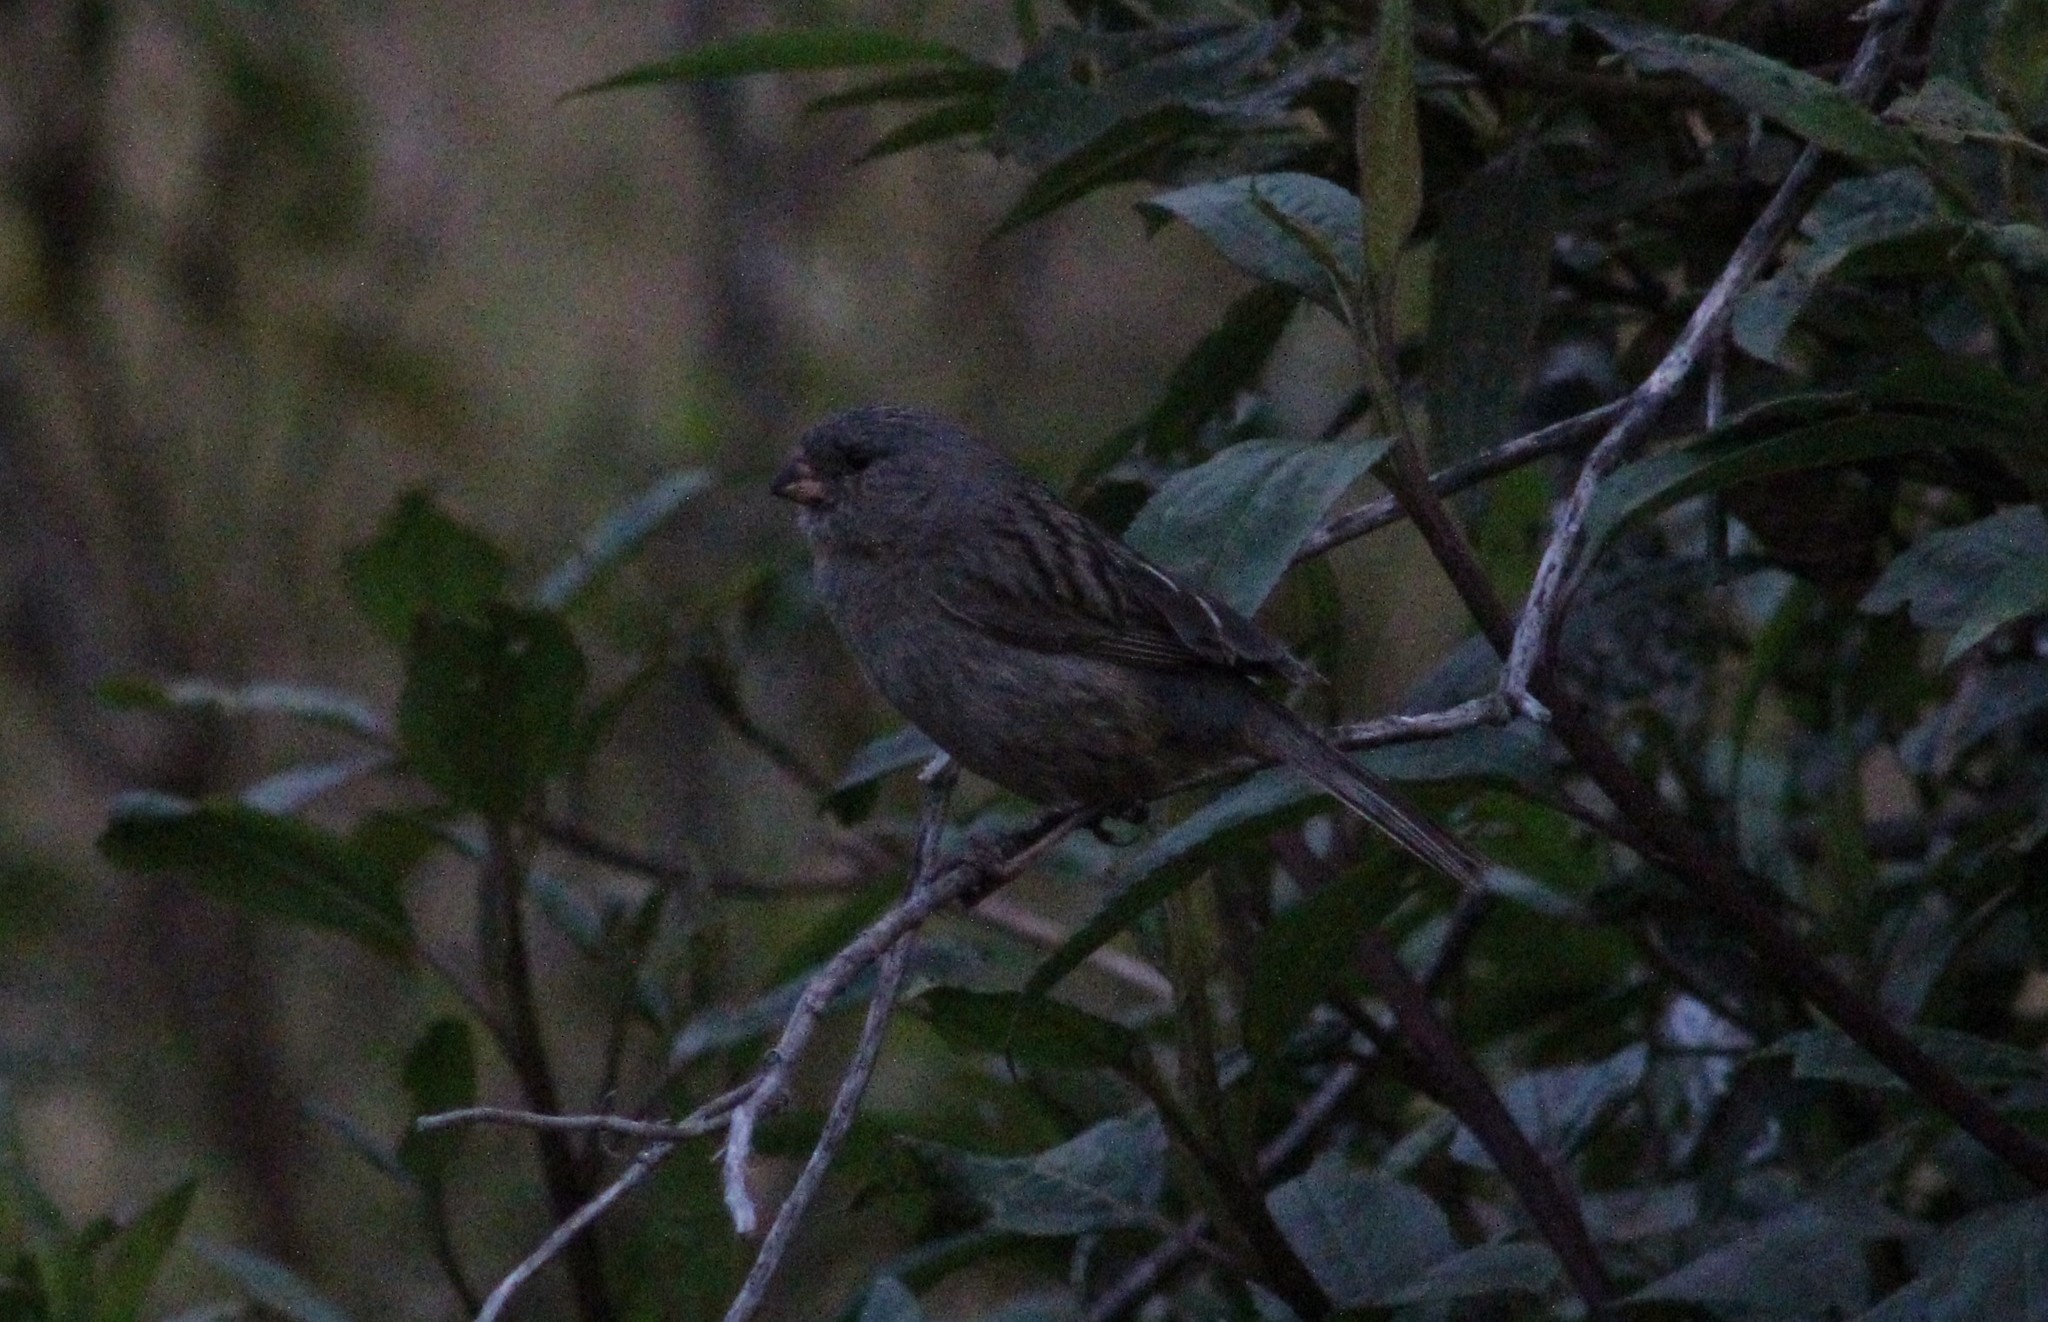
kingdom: Animalia
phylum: Chordata
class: Aves
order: Passeriformes
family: Thraupidae
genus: Catamenia
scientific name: Catamenia inornata
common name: Plain-colored seedeater
